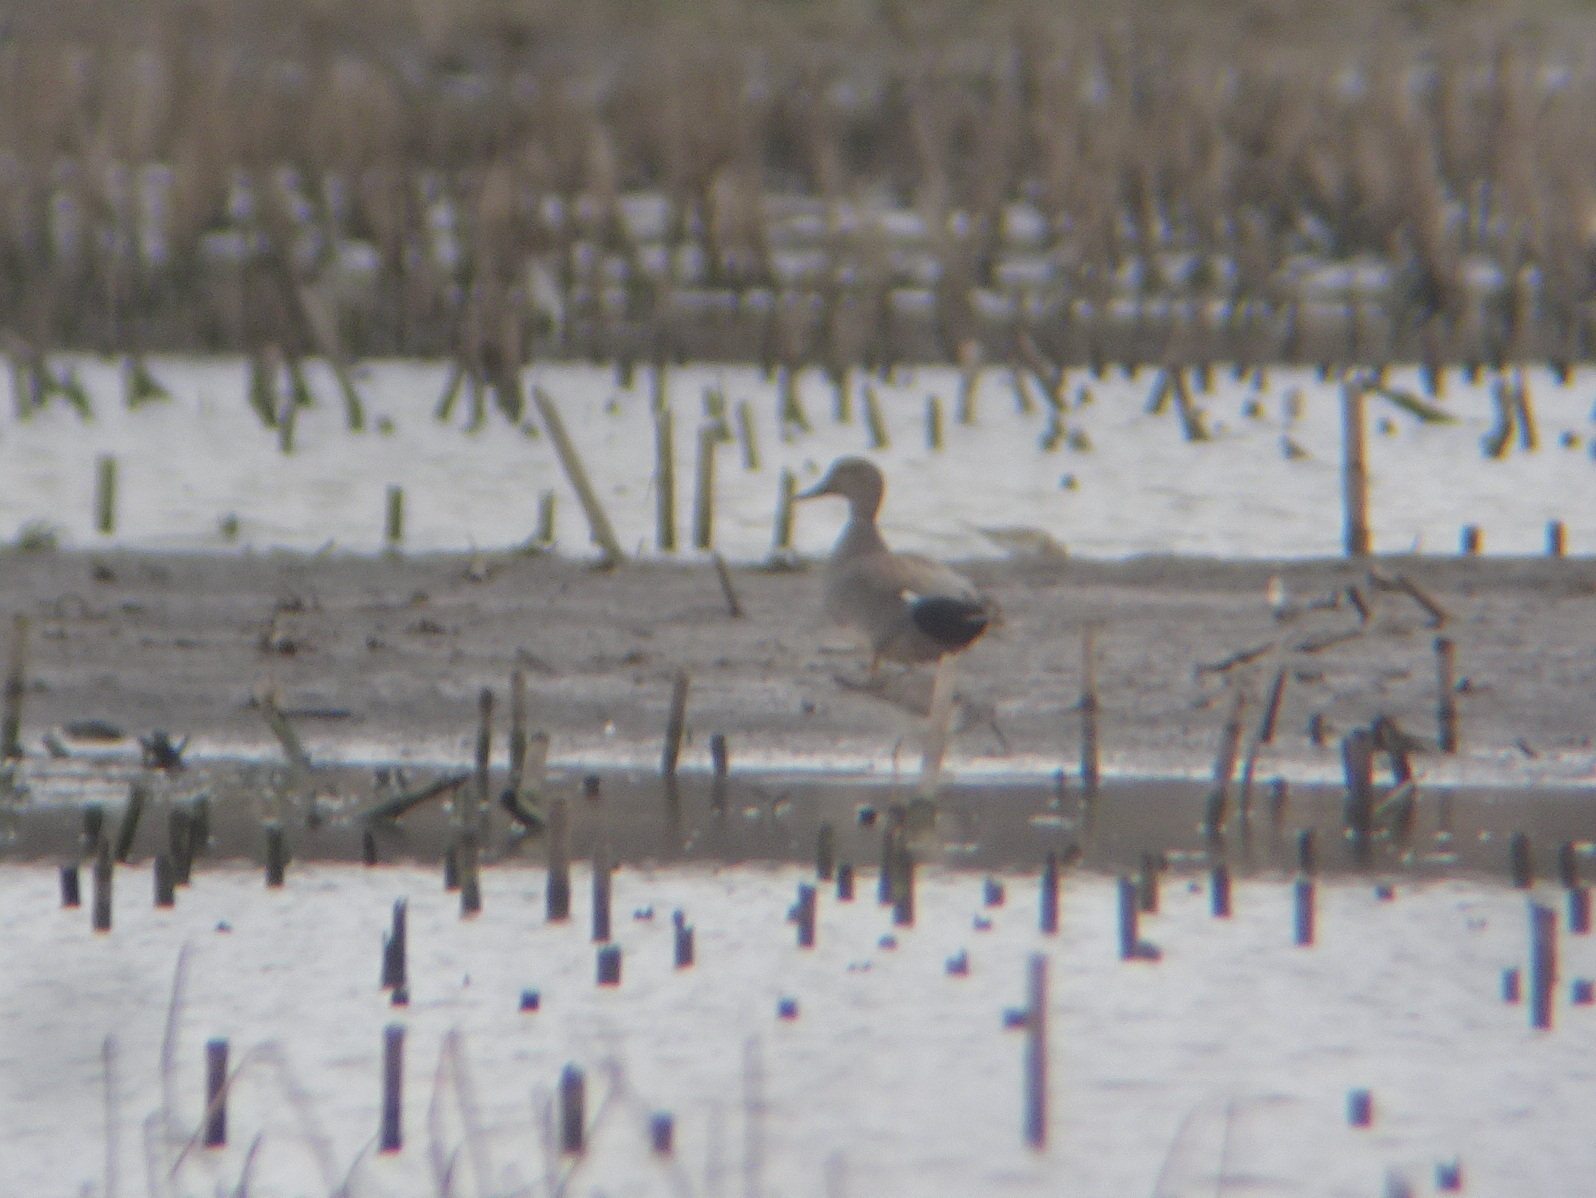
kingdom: Animalia
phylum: Chordata
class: Aves
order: Anseriformes
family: Anatidae
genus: Mareca
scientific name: Mareca strepera
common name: Gadwall
